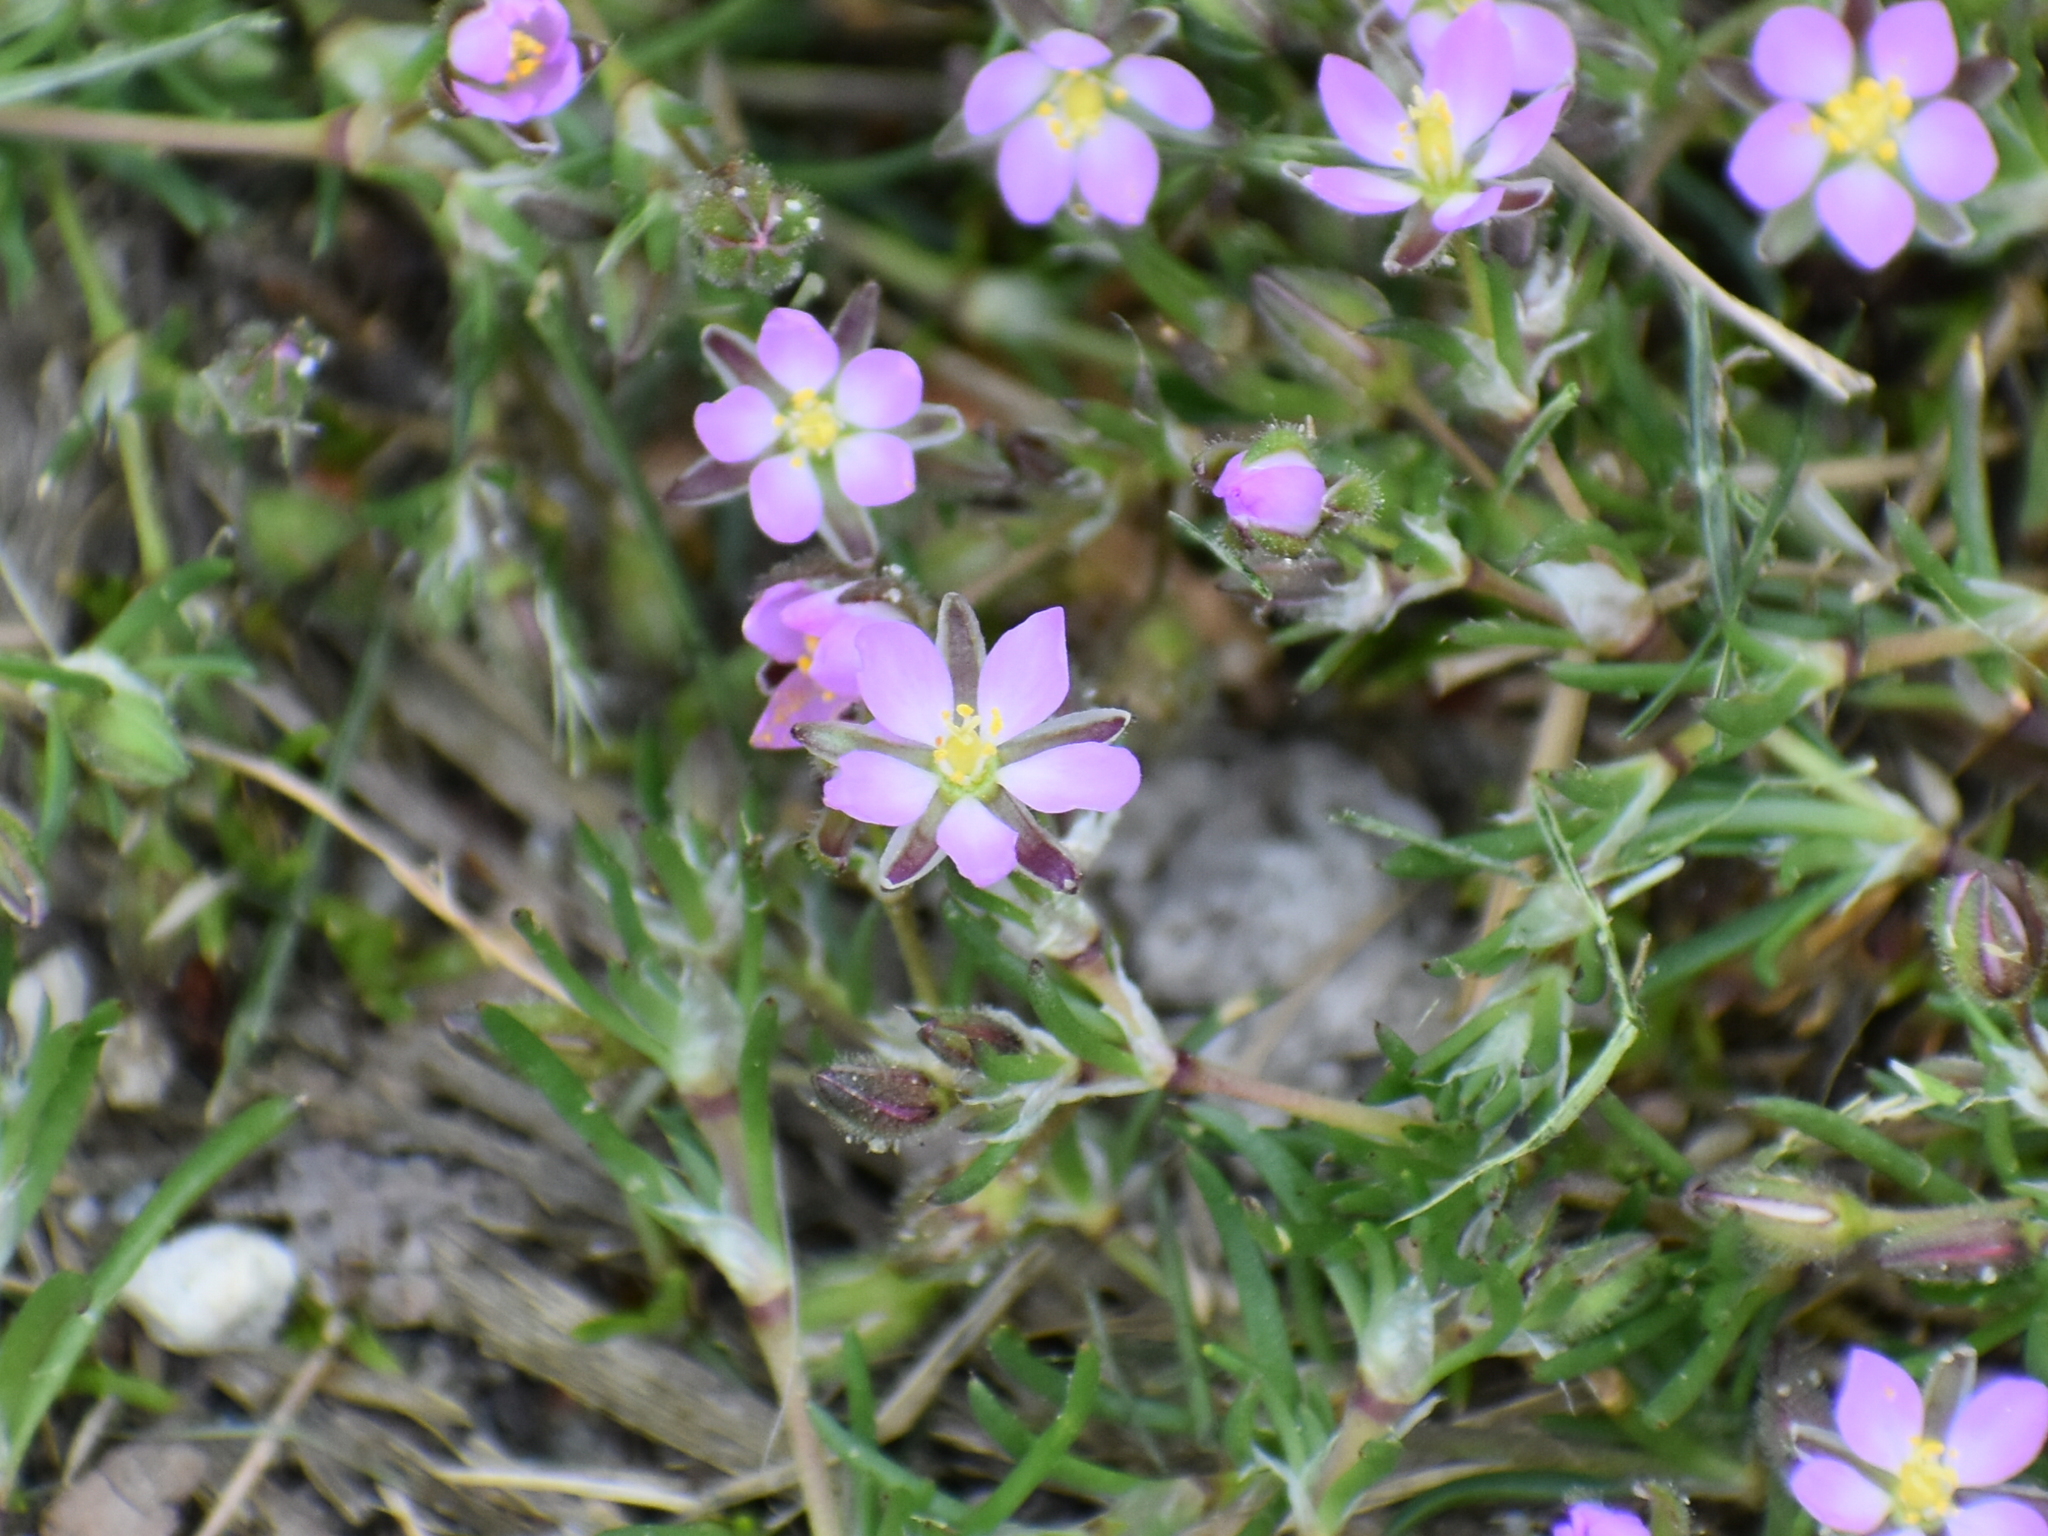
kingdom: Plantae
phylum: Tracheophyta
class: Magnoliopsida
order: Caryophyllales
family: Caryophyllaceae
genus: Spergularia
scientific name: Spergularia rubra
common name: Red sand-spurrey
